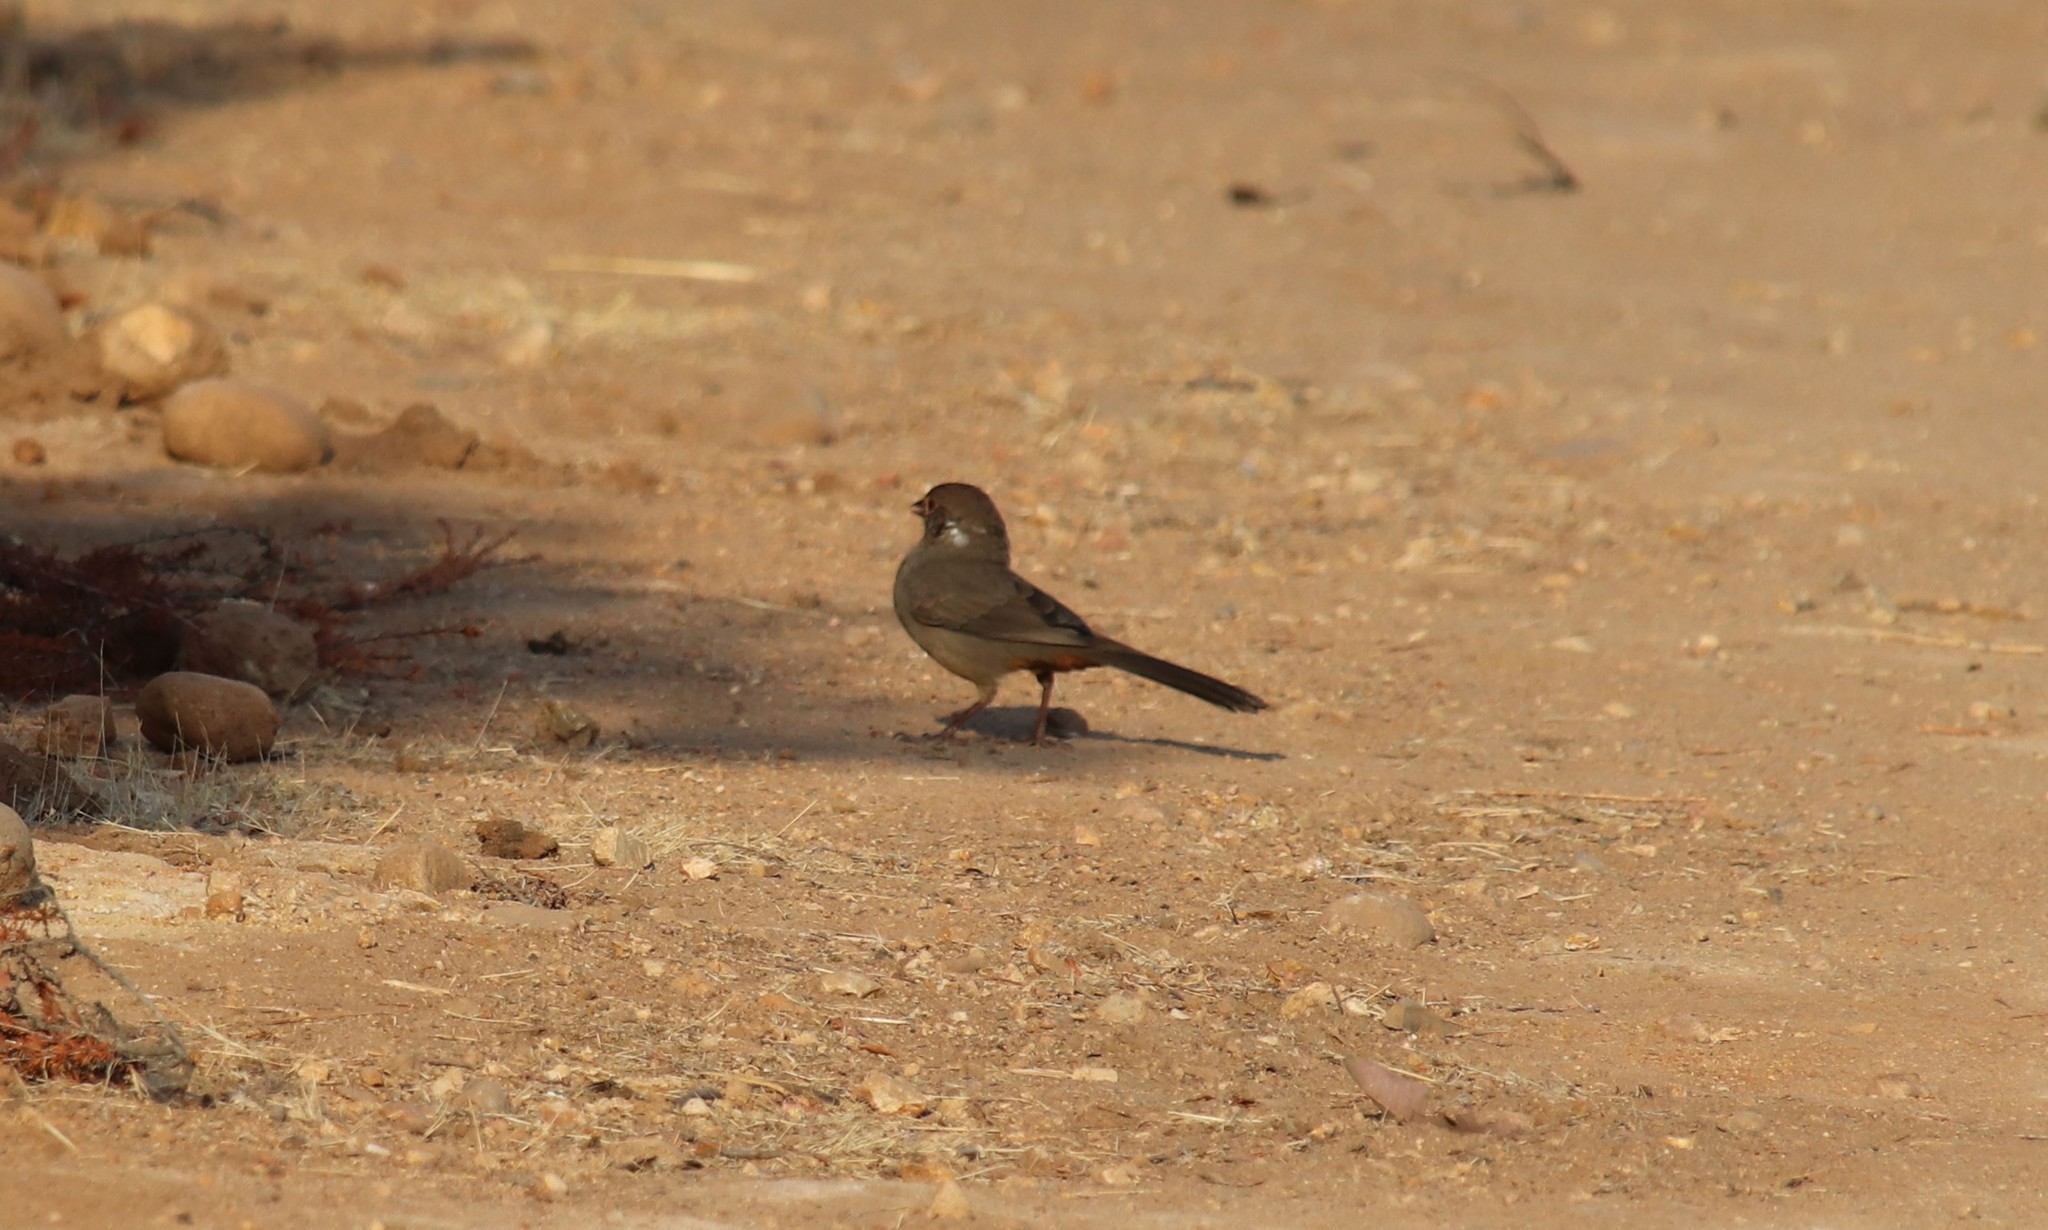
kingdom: Animalia
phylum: Chordata
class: Aves
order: Passeriformes
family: Passerellidae
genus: Melozone
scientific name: Melozone crissalis
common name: California towhee
